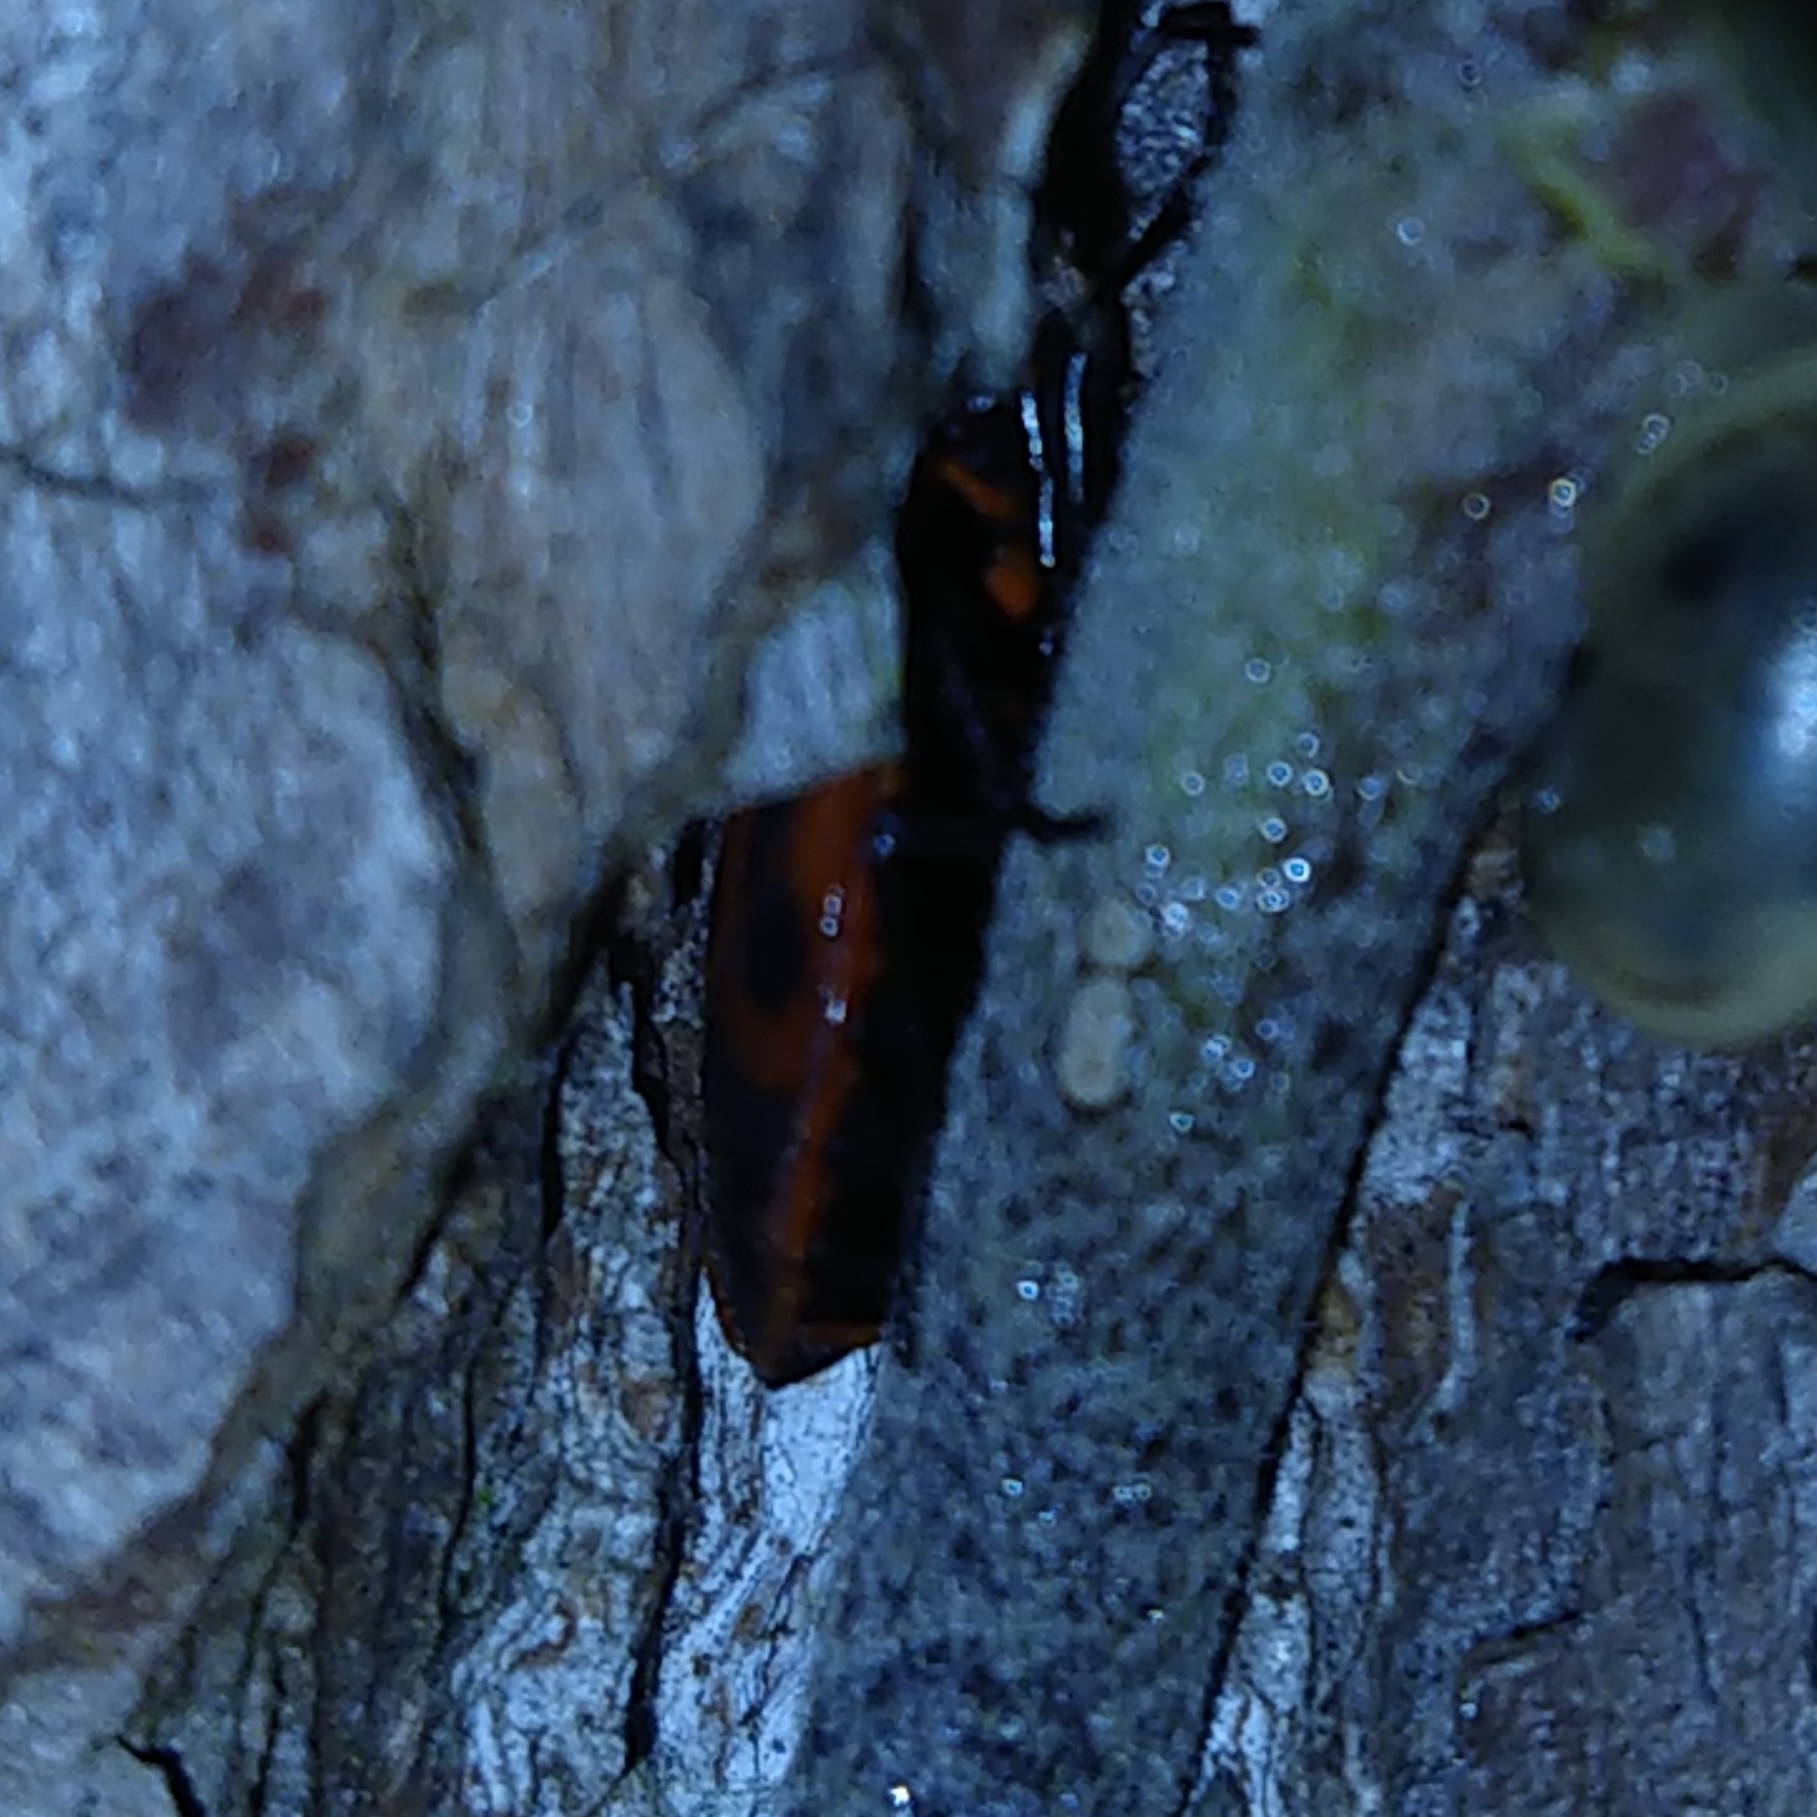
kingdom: Animalia
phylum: Arthropoda
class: Insecta
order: Hemiptera
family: Pyrrhocoridae
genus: Pyrrhocoris
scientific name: Pyrrhocoris apterus
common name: Firebug
